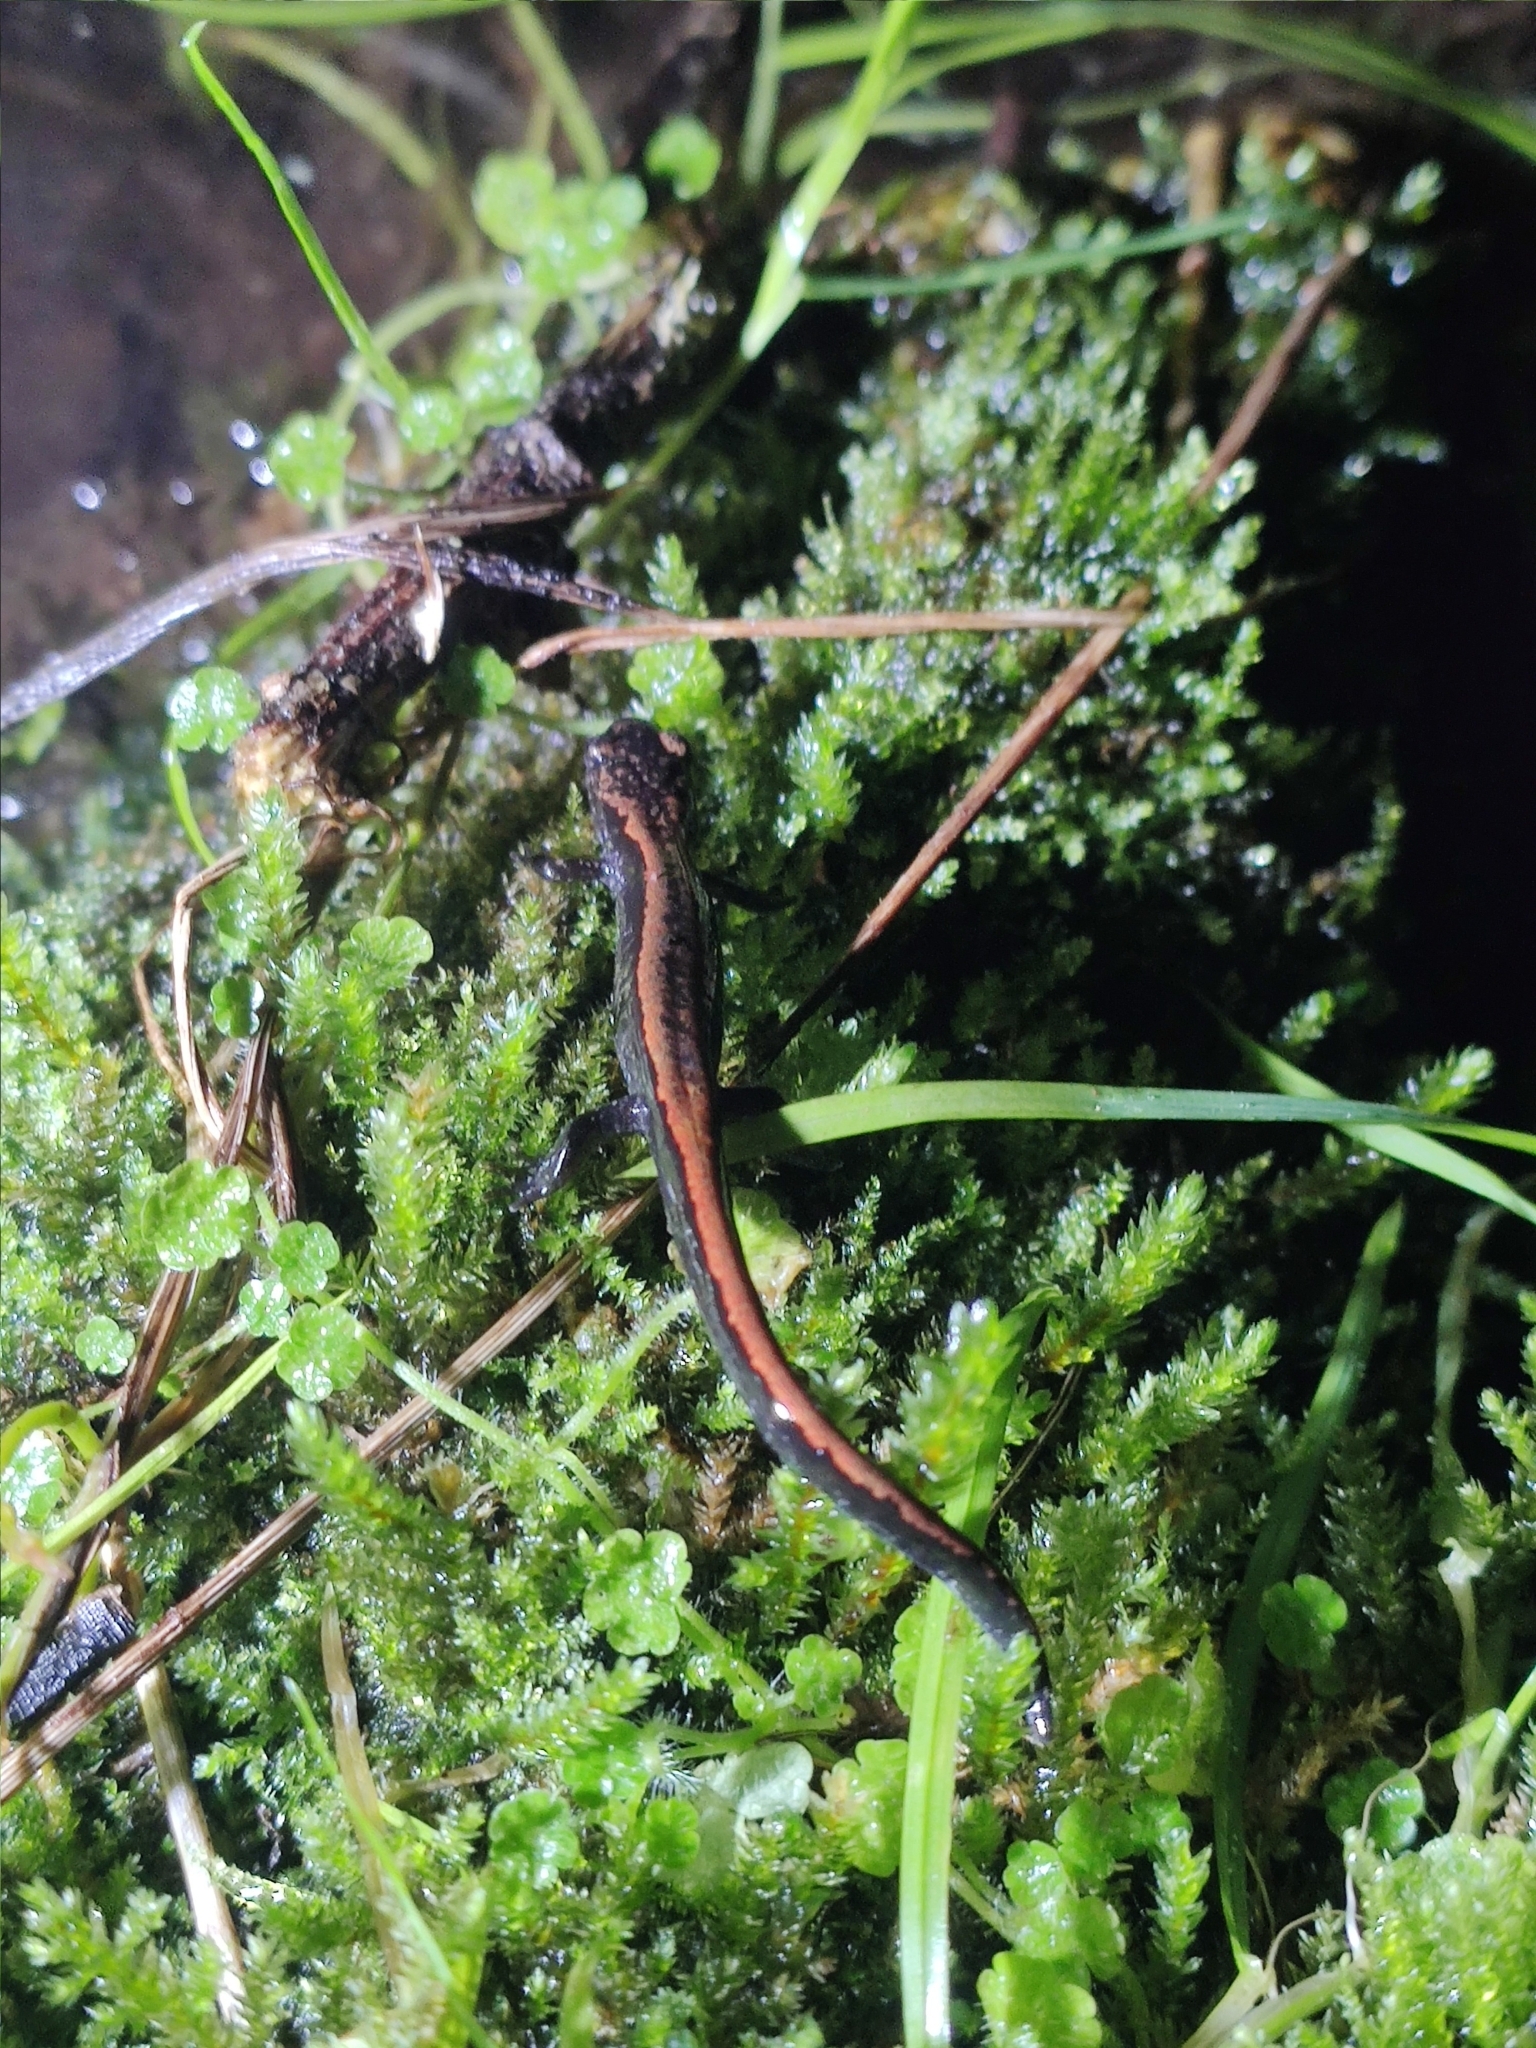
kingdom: Animalia
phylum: Chordata
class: Amphibia
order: Caudata
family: Salamandridae
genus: Chioglossa
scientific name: Chioglossa lusitanica
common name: Gold-striped salamander
